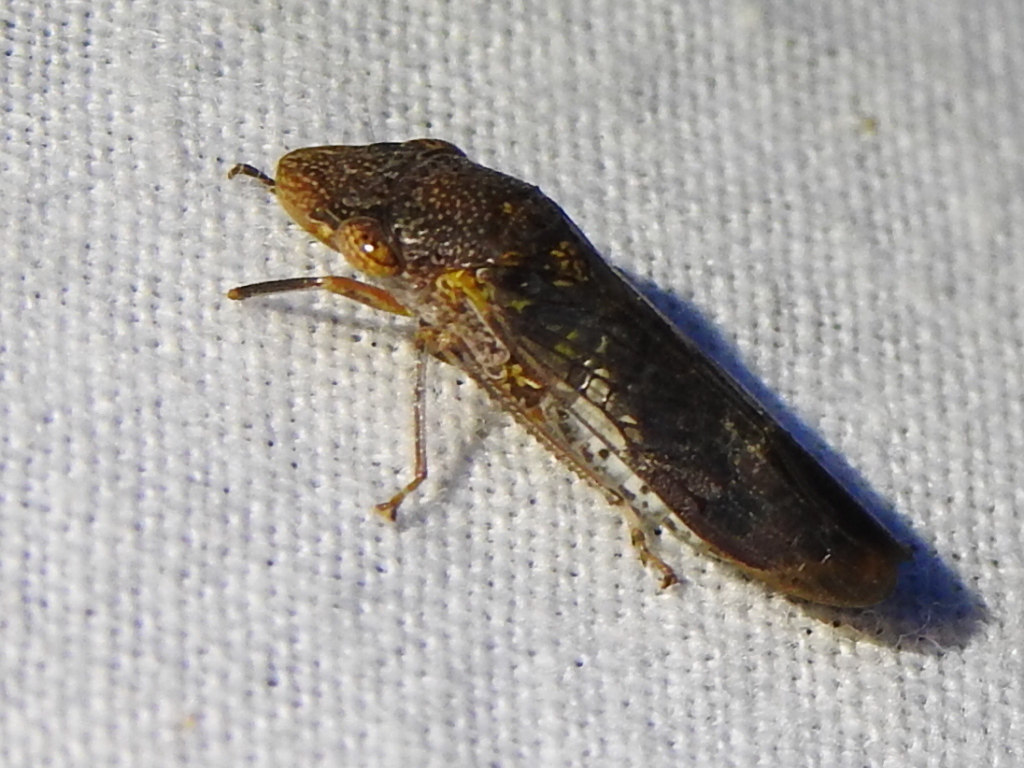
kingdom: Animalia
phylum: Arthropoda
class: Insecta
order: Hemiptera
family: Cicadellidae
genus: Homalodisca
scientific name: Homalodisca vitripennis
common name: Glassy-winged sharpshooter
